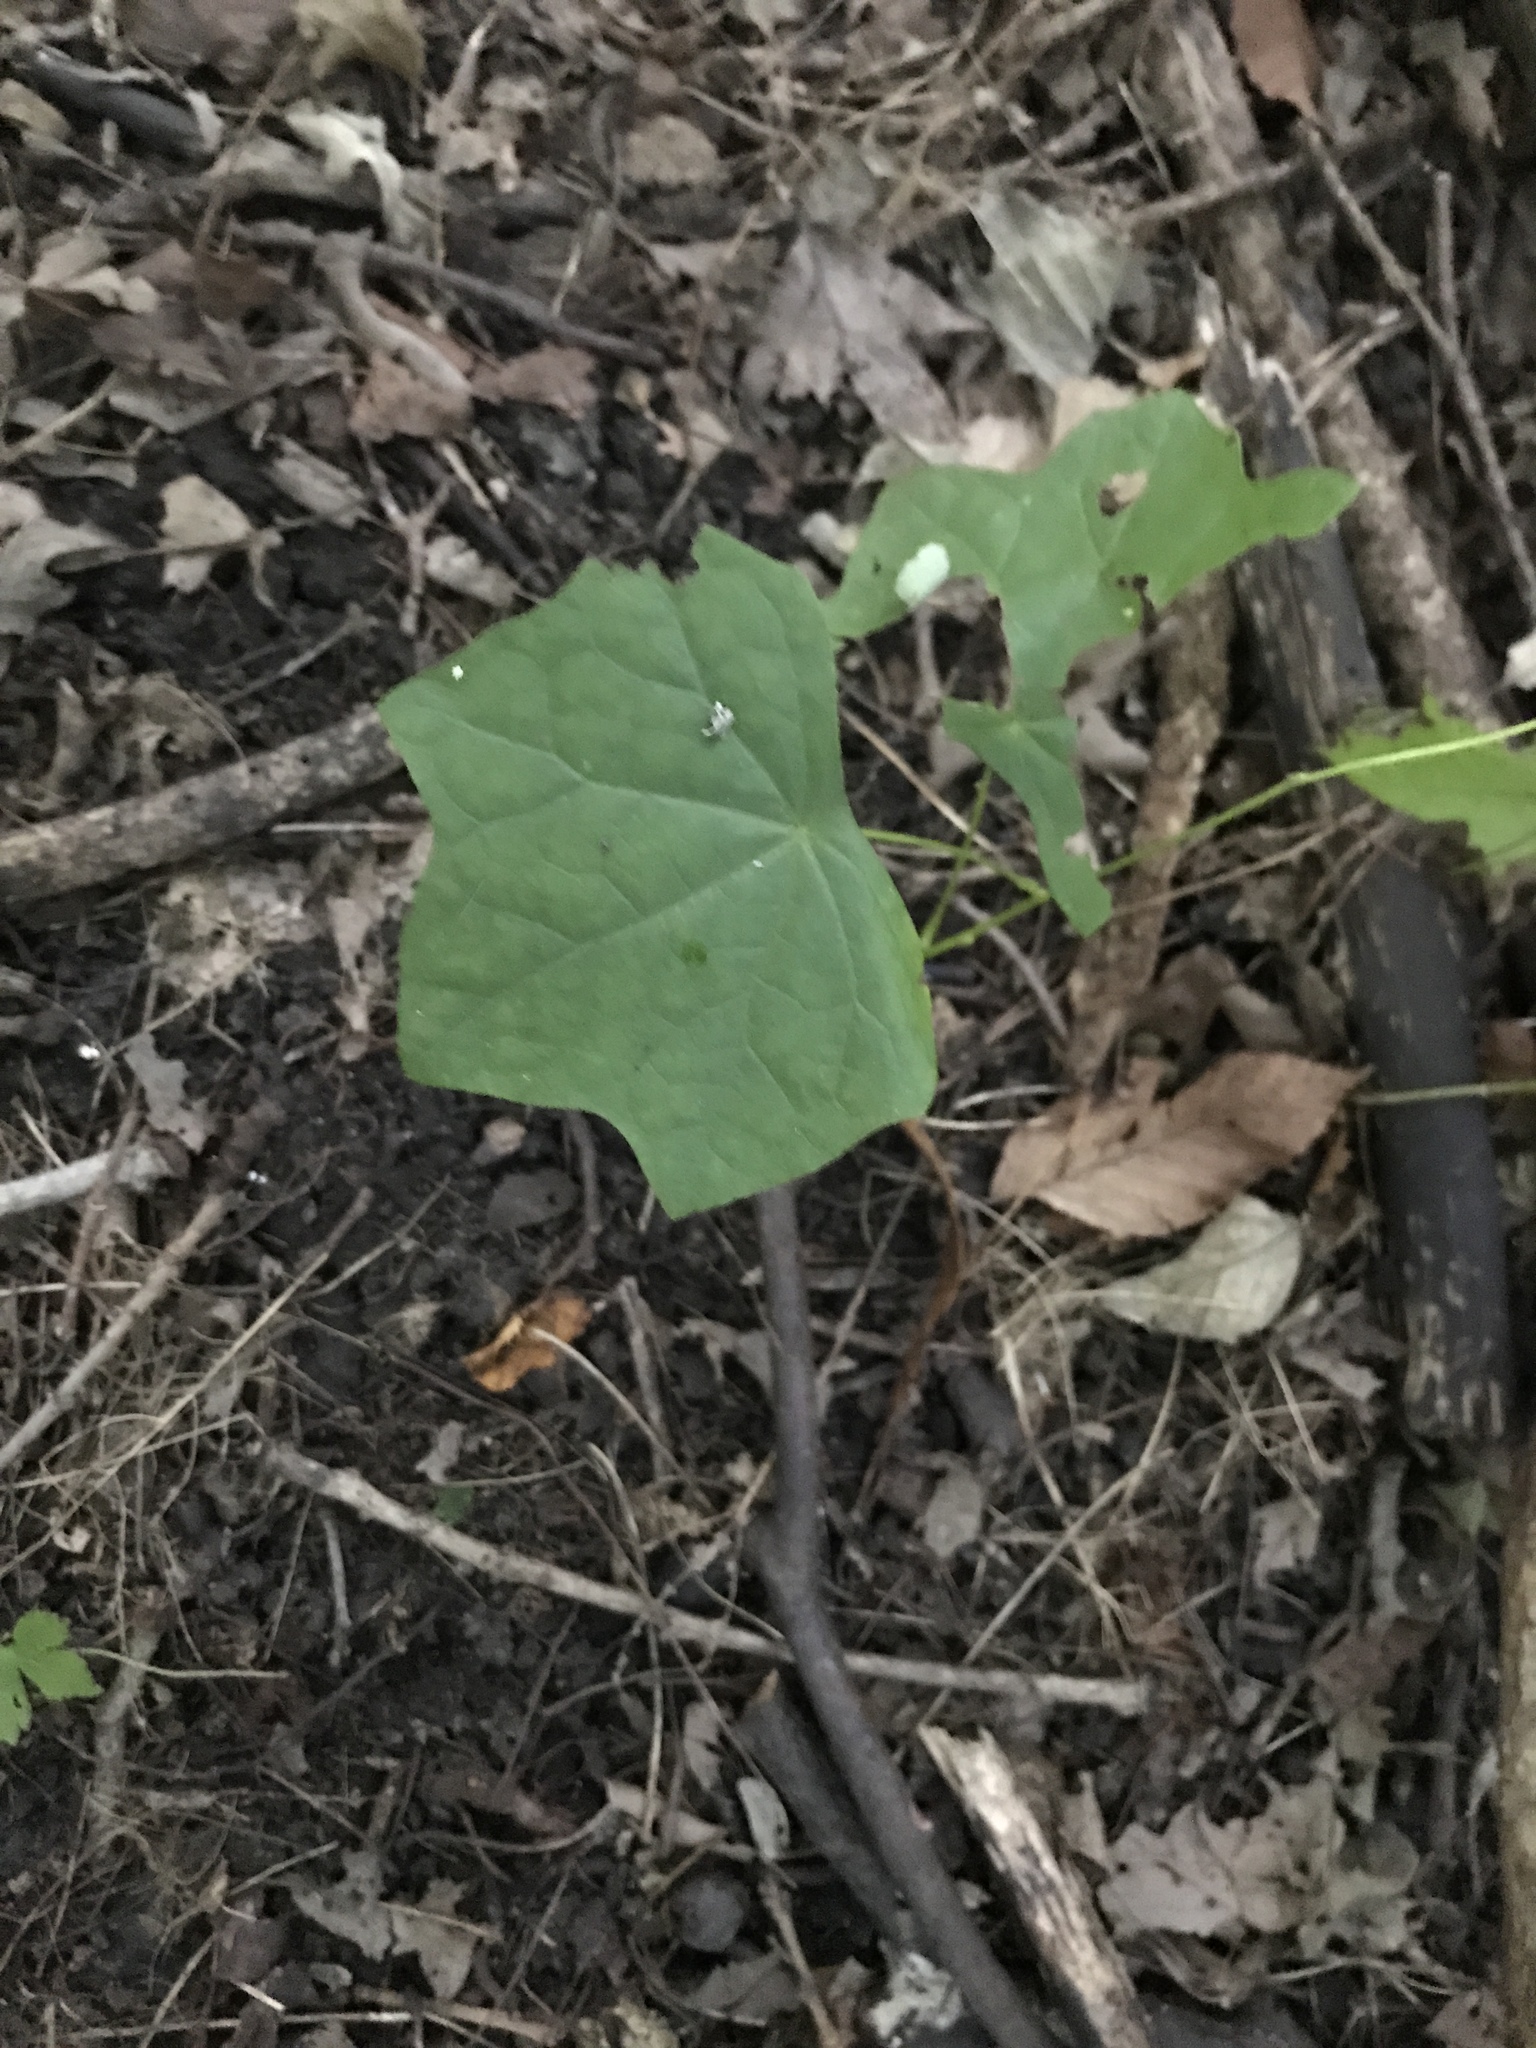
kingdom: Plantae
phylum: Tracheophyta
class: Magnoliopsida
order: Ranunculales
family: Menispermaceae
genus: Menispermum
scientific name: Menispermum canadense
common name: Moonseed
